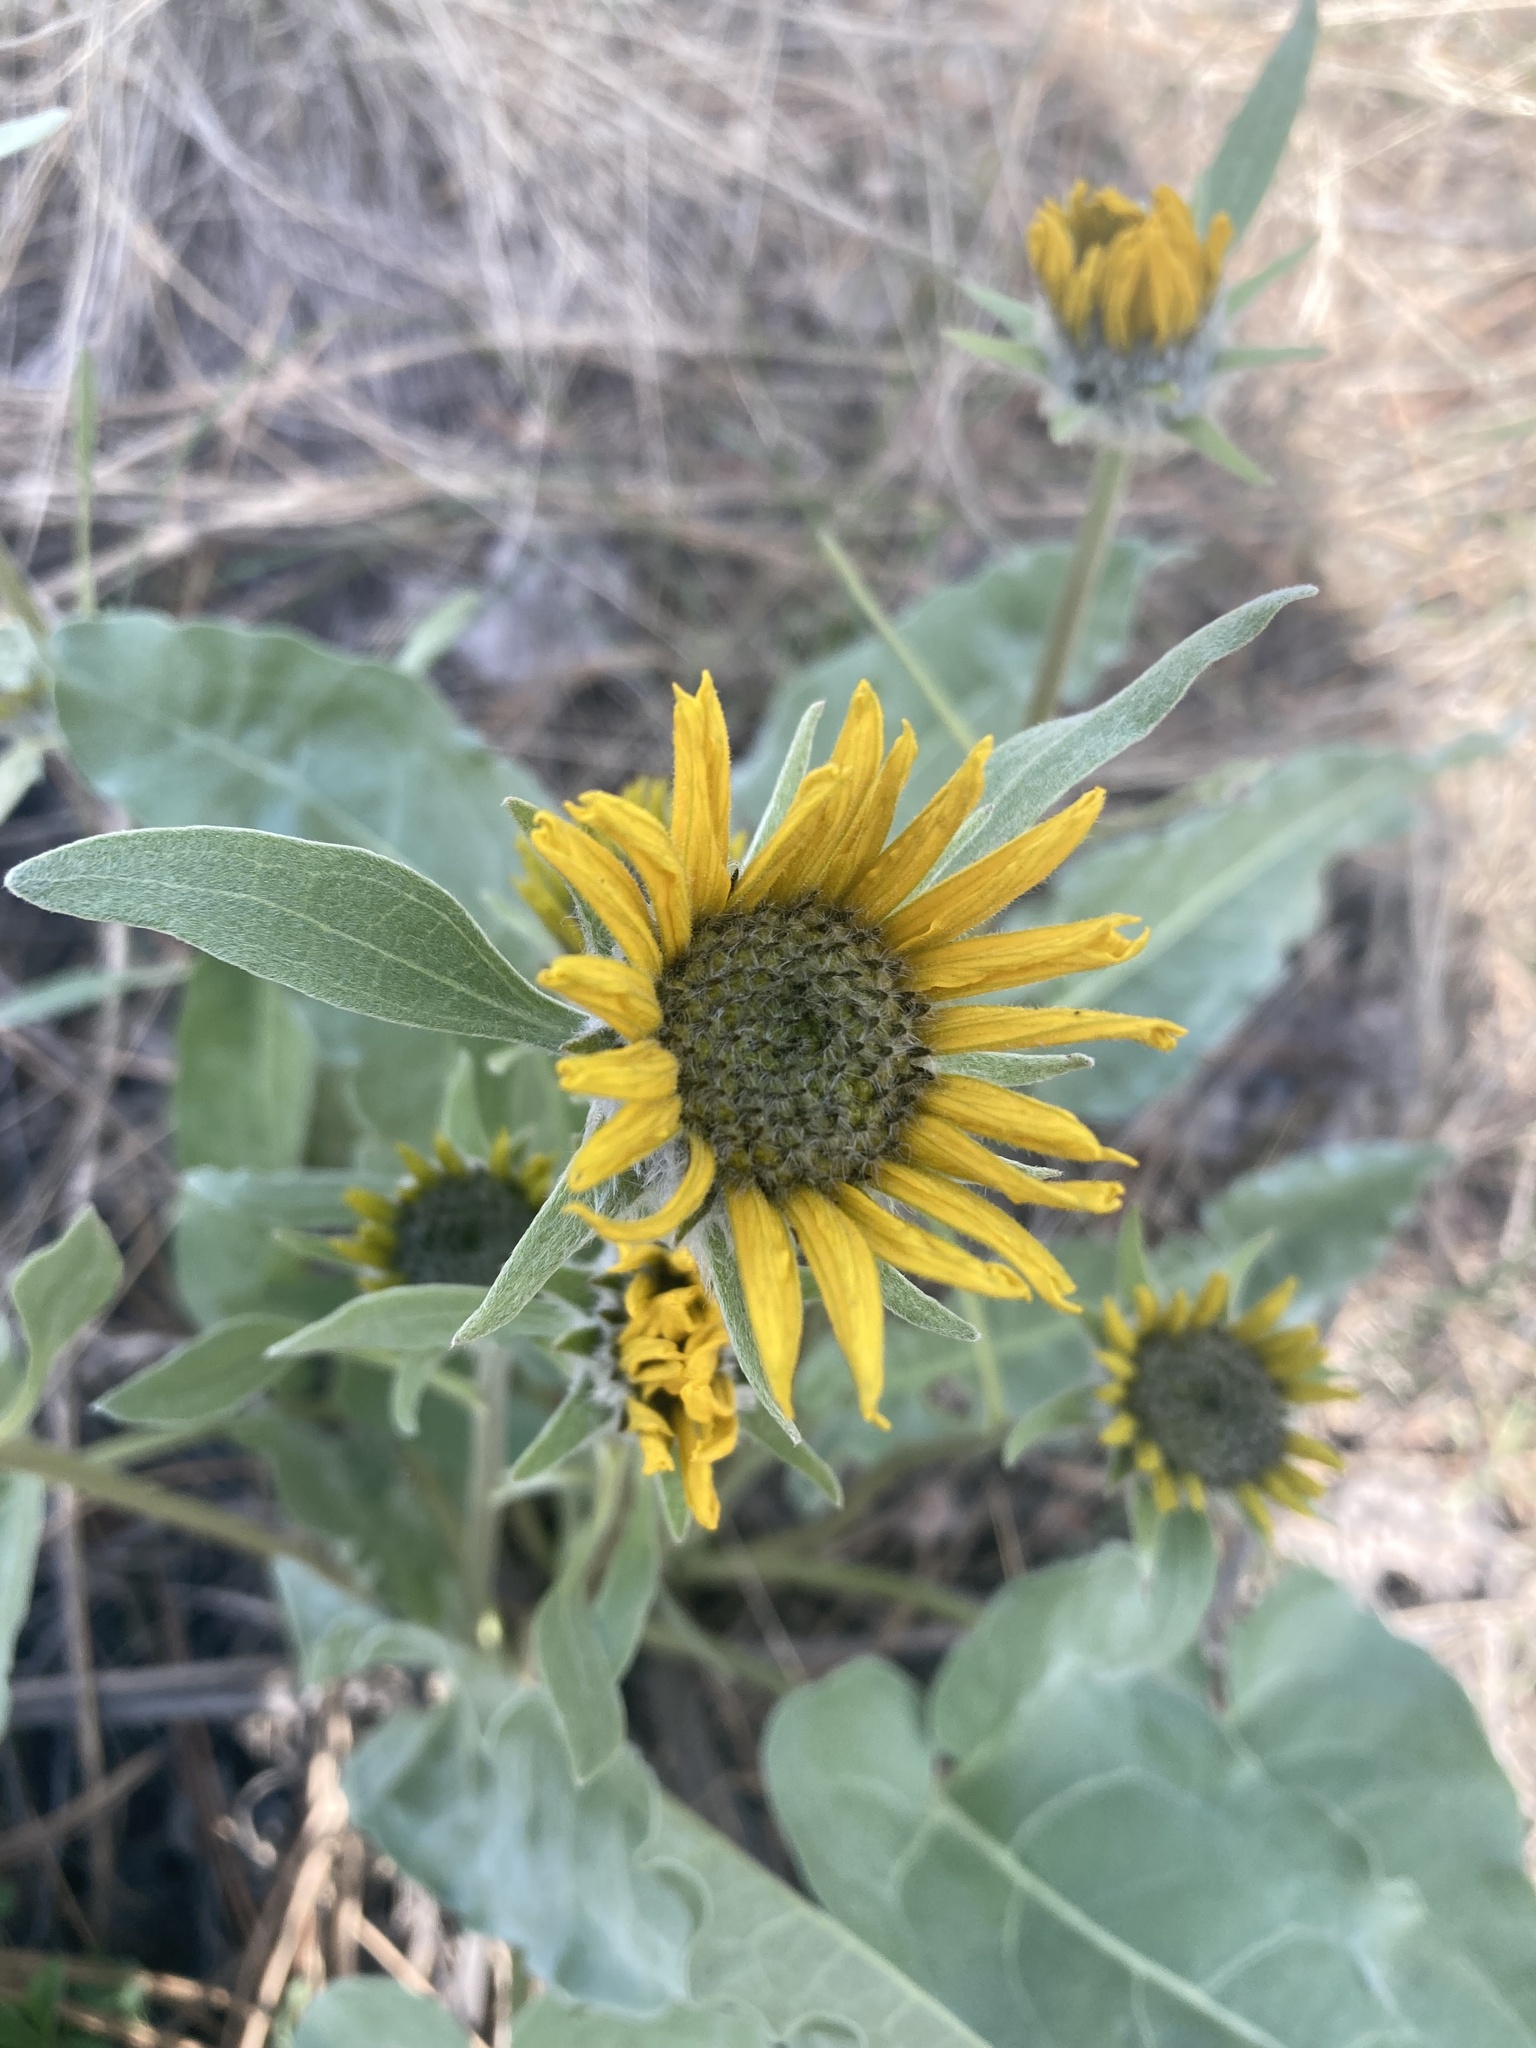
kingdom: Plantae
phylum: Tracheophyta
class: Magnoliopsida
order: Asterales
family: Asteraceae
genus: Wyethia
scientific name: Wyethia sagittata
